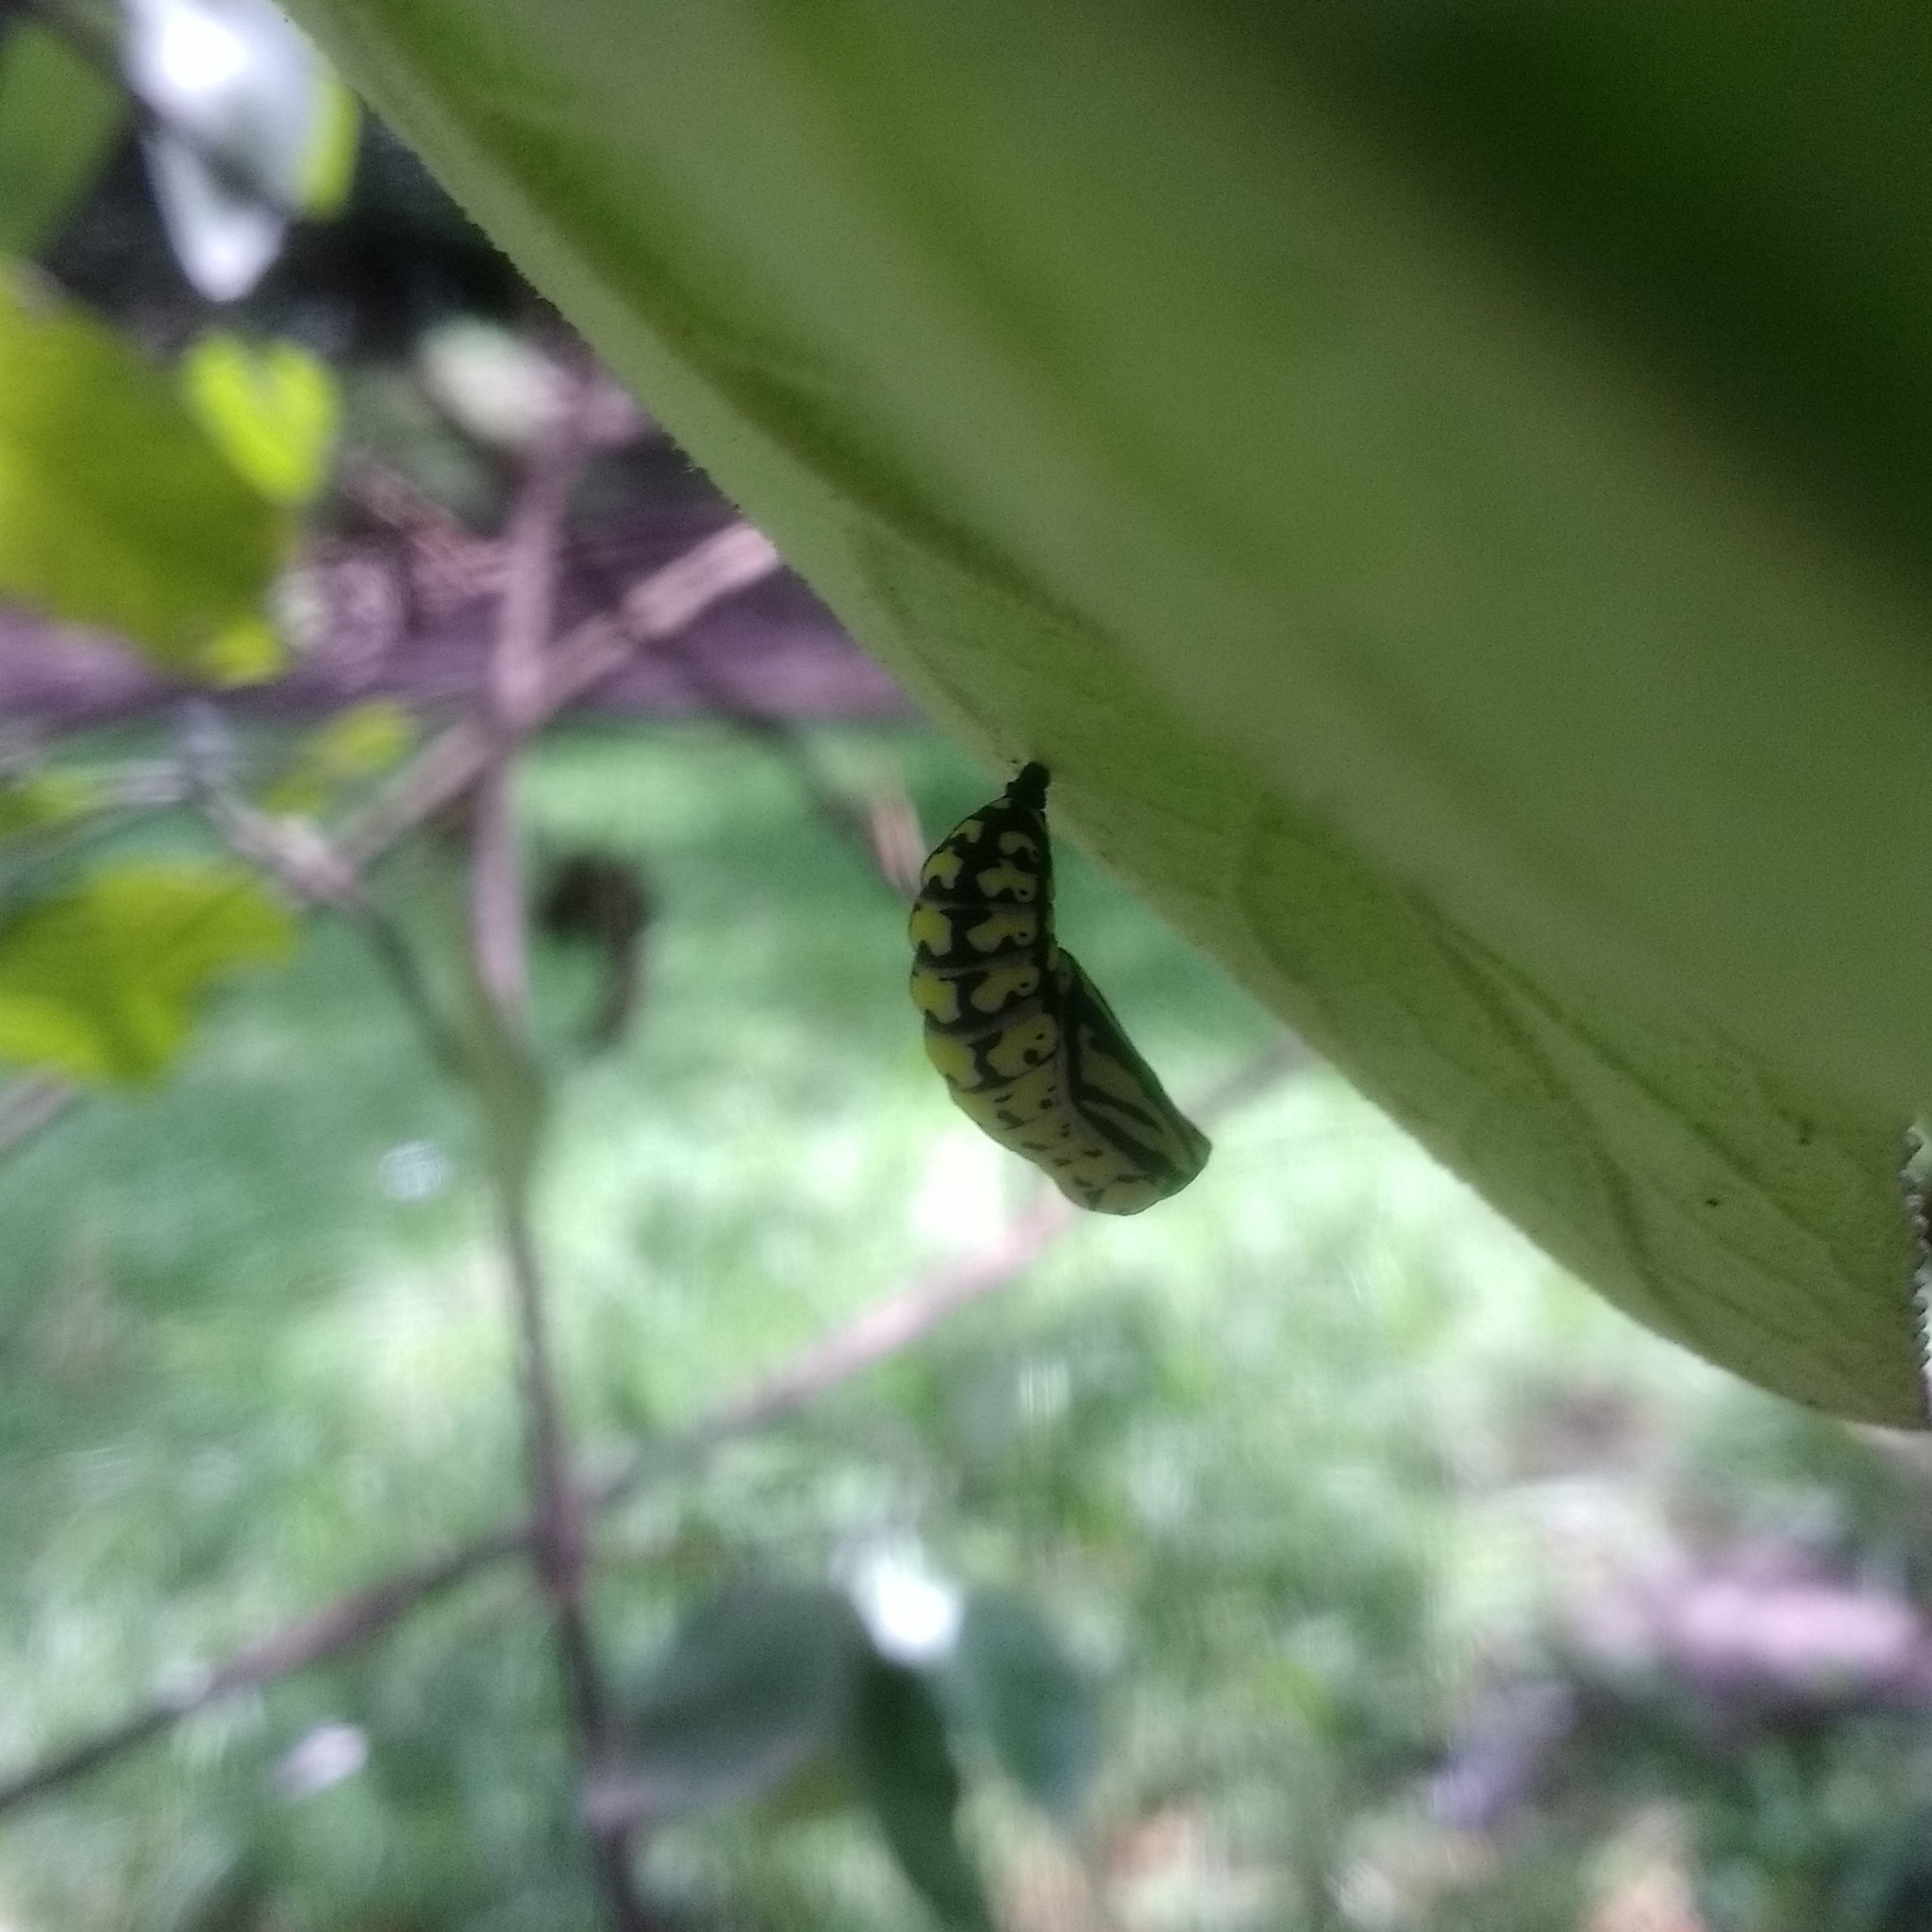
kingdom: Animalia
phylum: Arthropoda
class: Insecta
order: Lepidoptera
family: Nymphalidae
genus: Chlosyne
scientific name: Chlosyne ehrenbergii
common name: White-rayed patch
